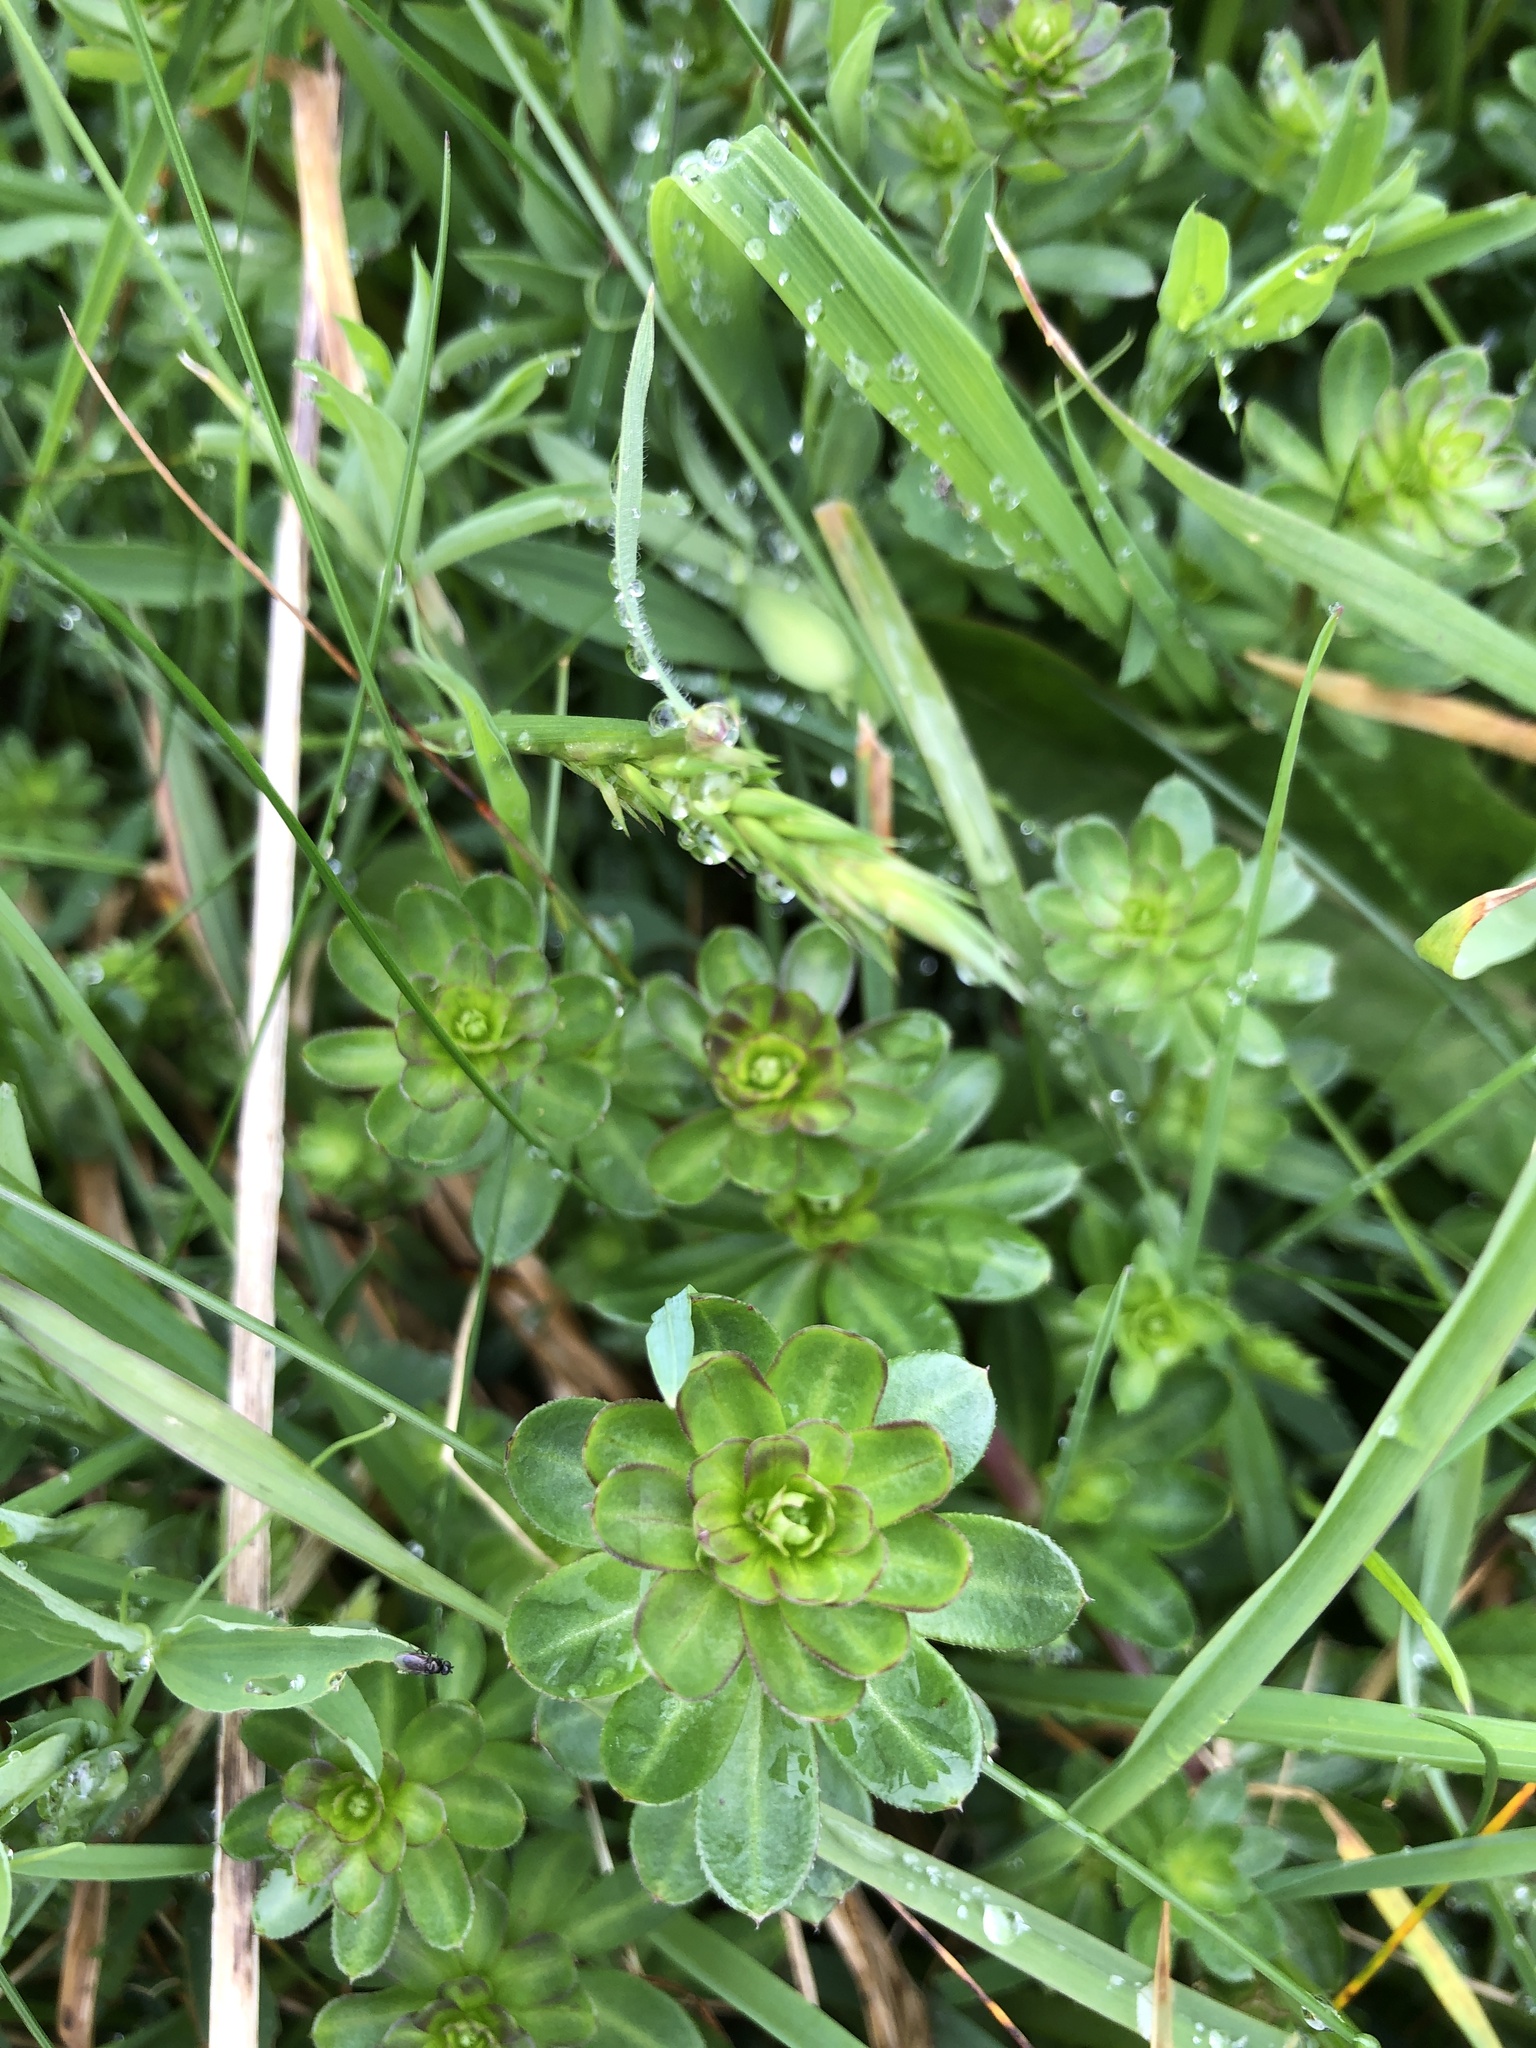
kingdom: Plantae
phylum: Tracheophyta
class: Magnoliopsida
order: Gentianales
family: Rubiaceae
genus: Galium
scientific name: Galium mollugo
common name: Hedge bedstraw
